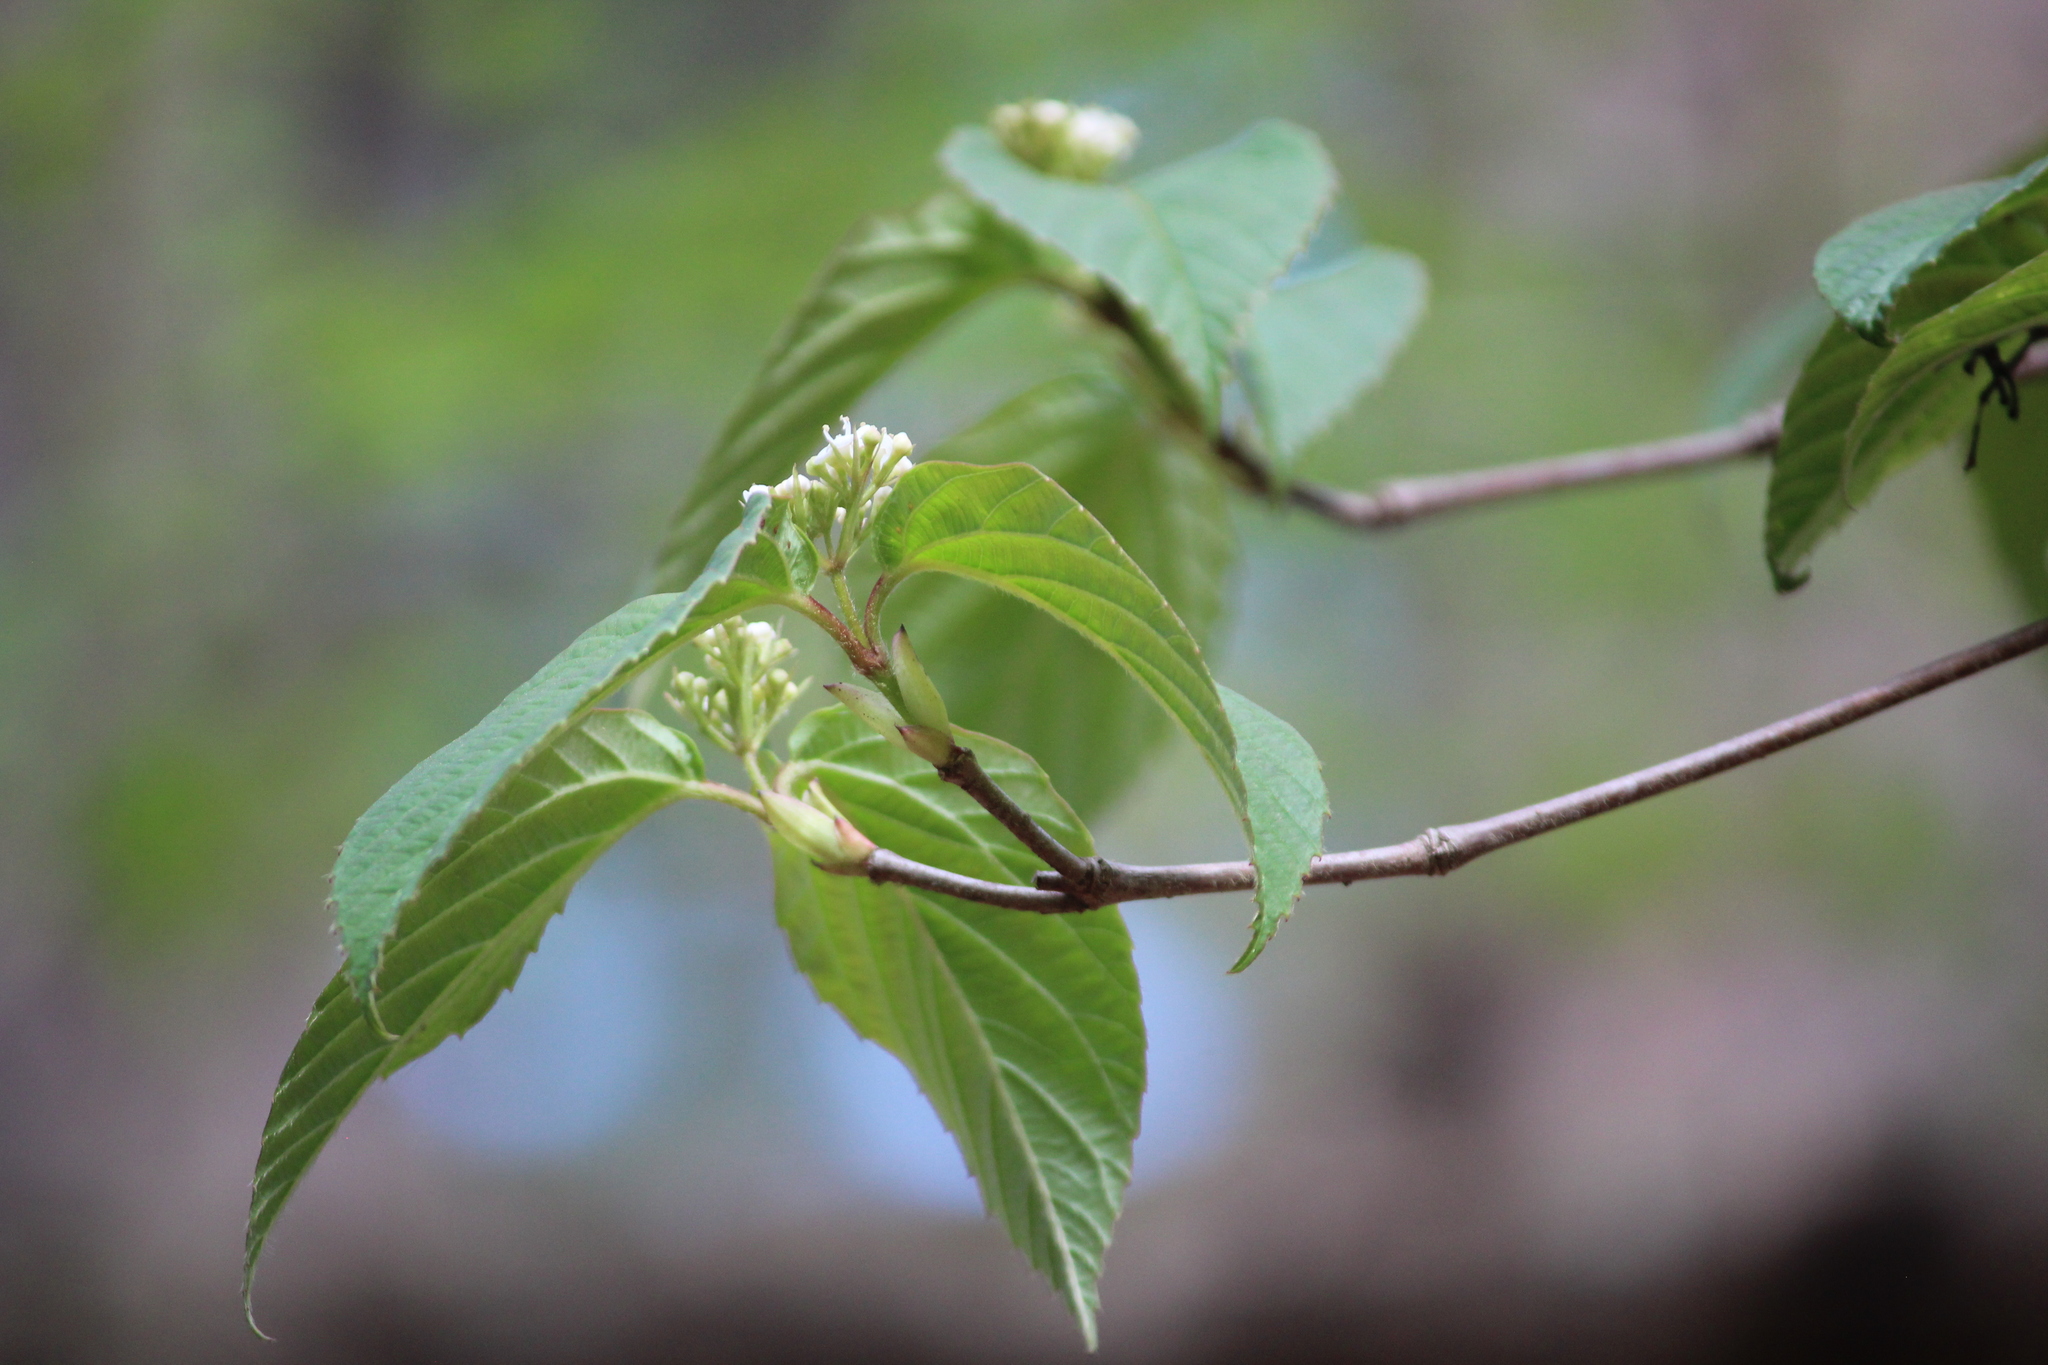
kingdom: Plantae
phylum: Tracheophyta
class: Magnoliopsida
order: Dipsacales
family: Viburnaceae
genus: Viburnum
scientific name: Viburnum setigerum
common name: Tea viburnum
